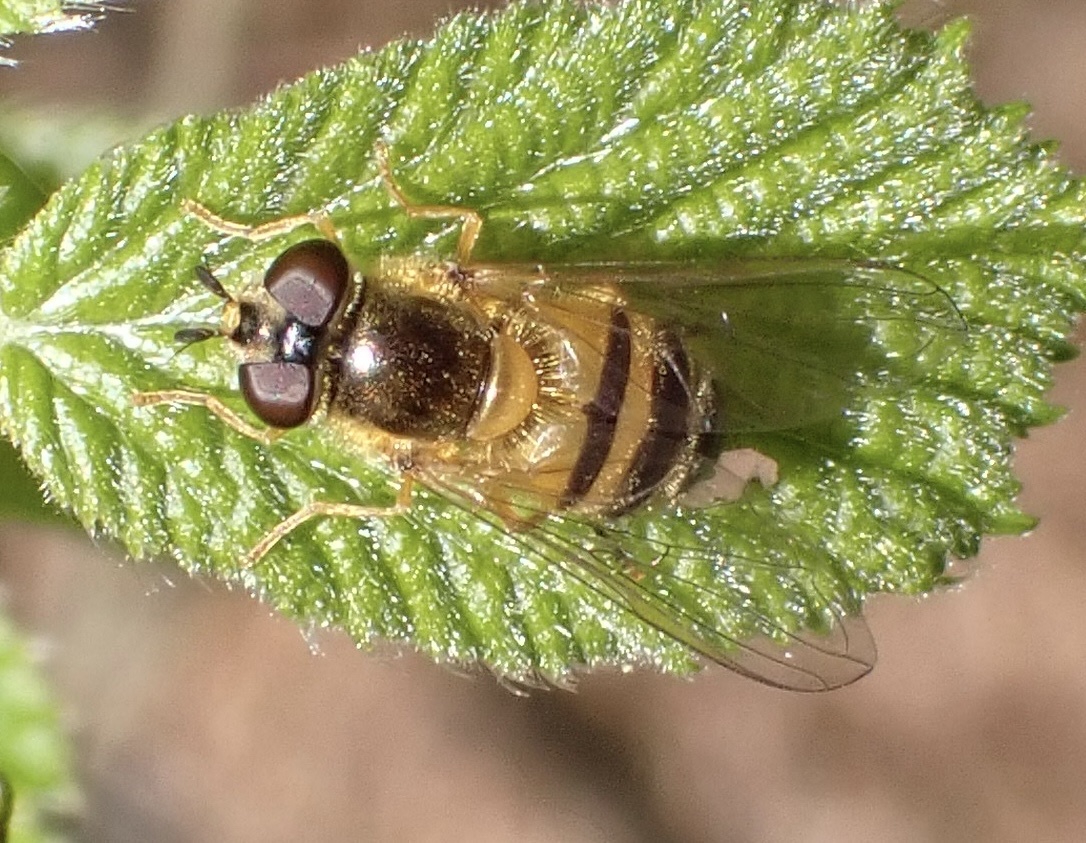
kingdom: Animalia
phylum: Arthropoda
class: Insecta
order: Diptera
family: Syrphidae
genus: Epistrophe
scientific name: Epistrophe eligans
